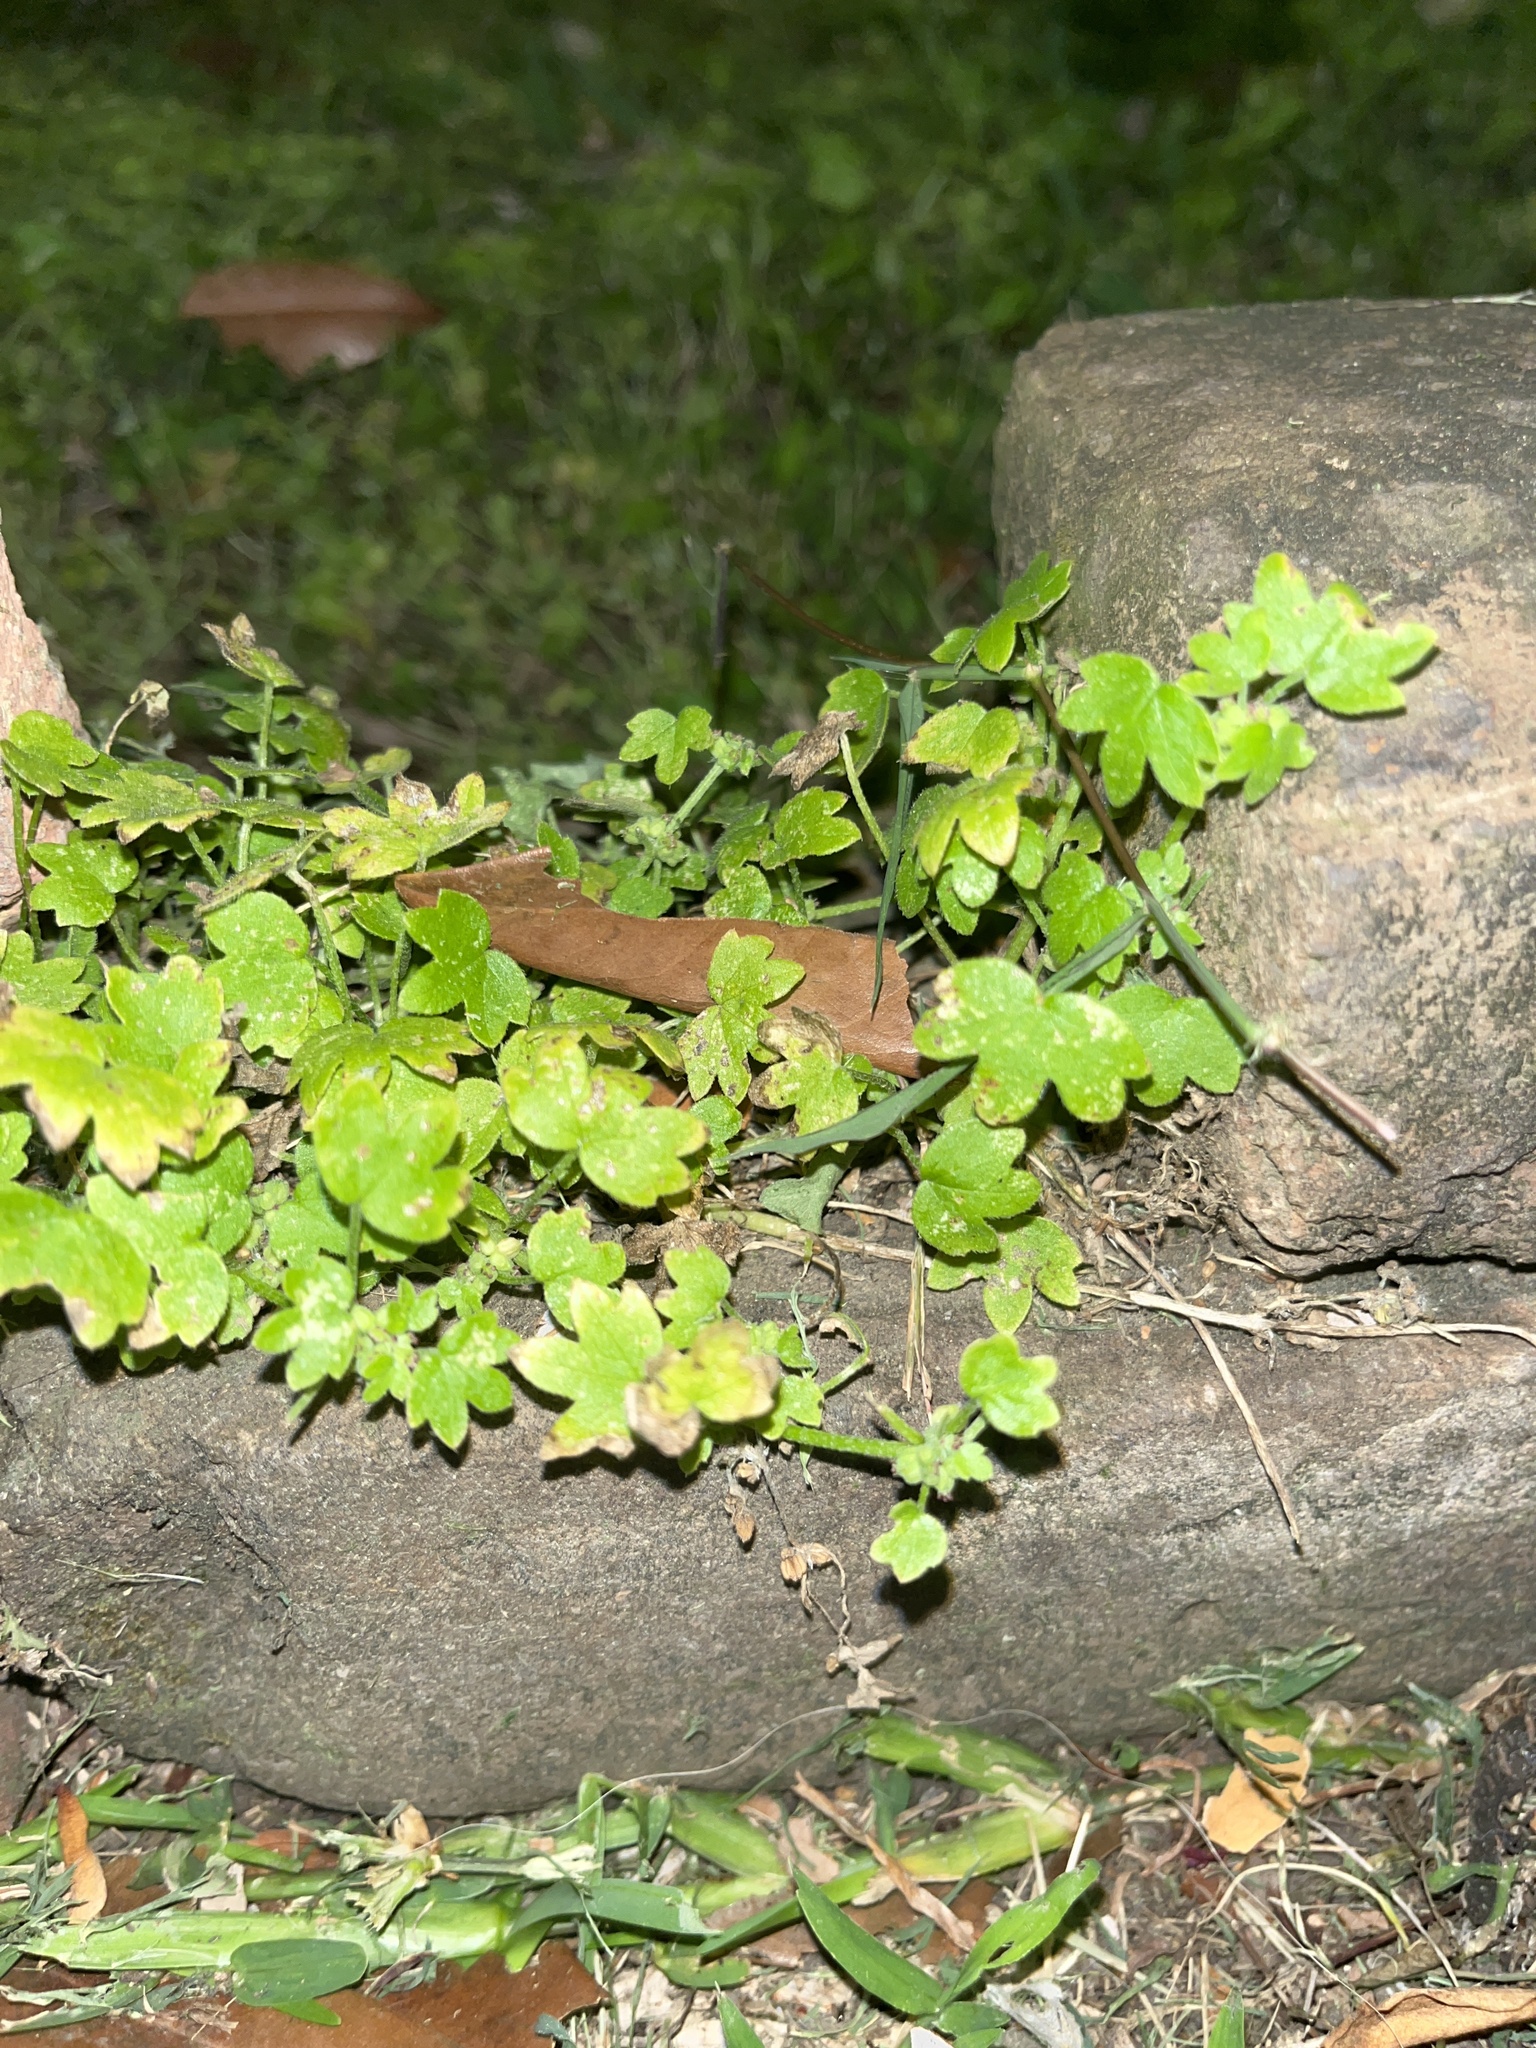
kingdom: Plantae
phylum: Tracheophyta
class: Magnoliopsida
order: Apiales
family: Apiaceae
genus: Bowlesia
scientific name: Bowlesia incana
